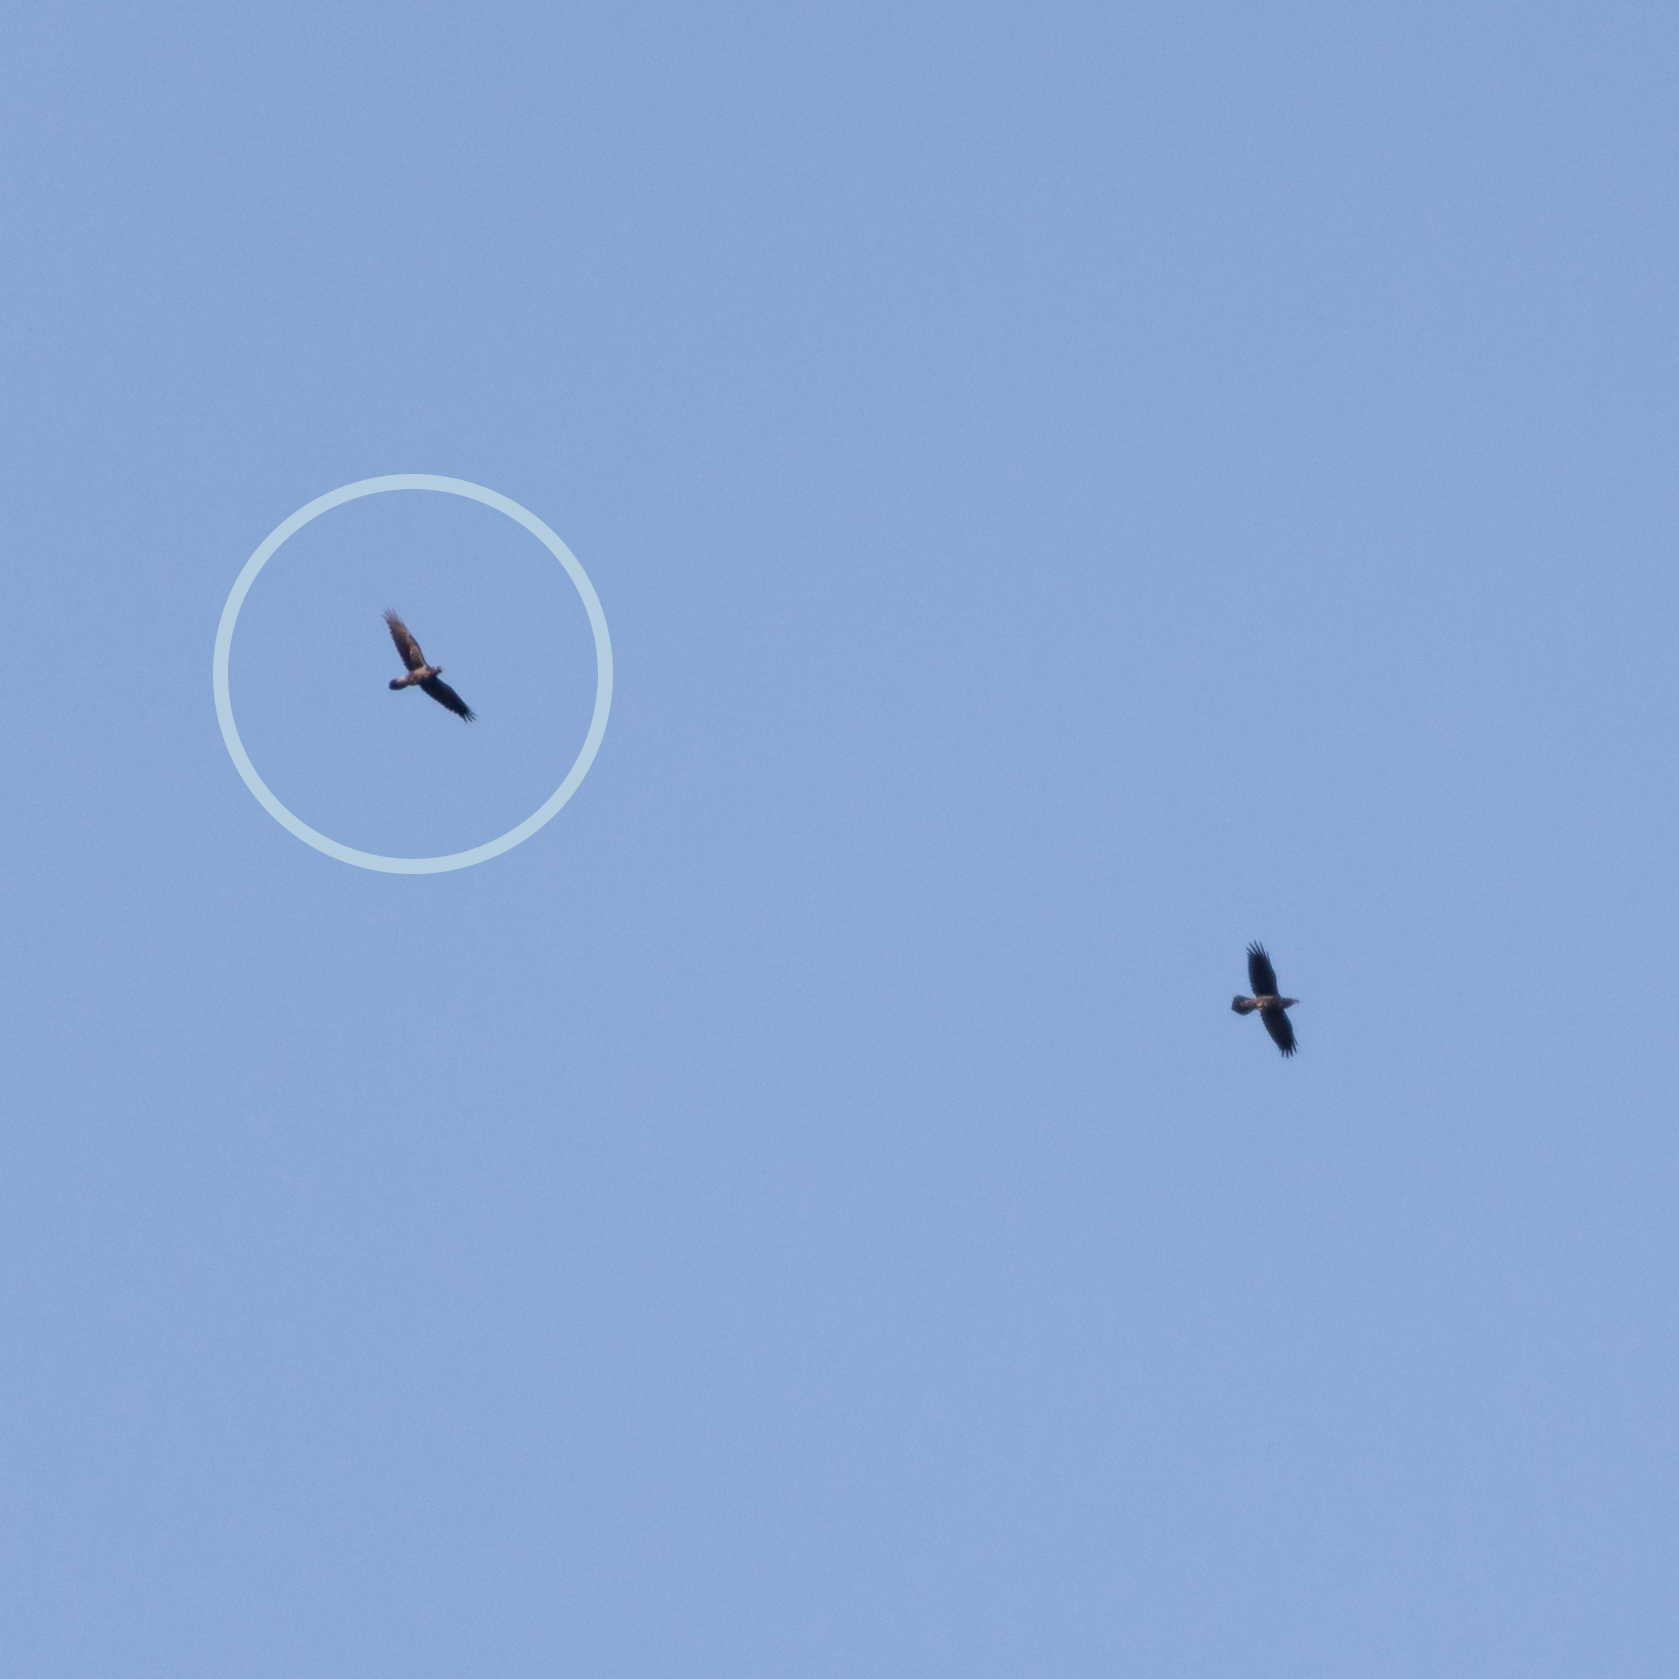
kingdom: Animalia
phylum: Chordata
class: Aves
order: Passeriformes
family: Corvidae
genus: Corvus
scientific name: Corvus corax
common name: Common raven
